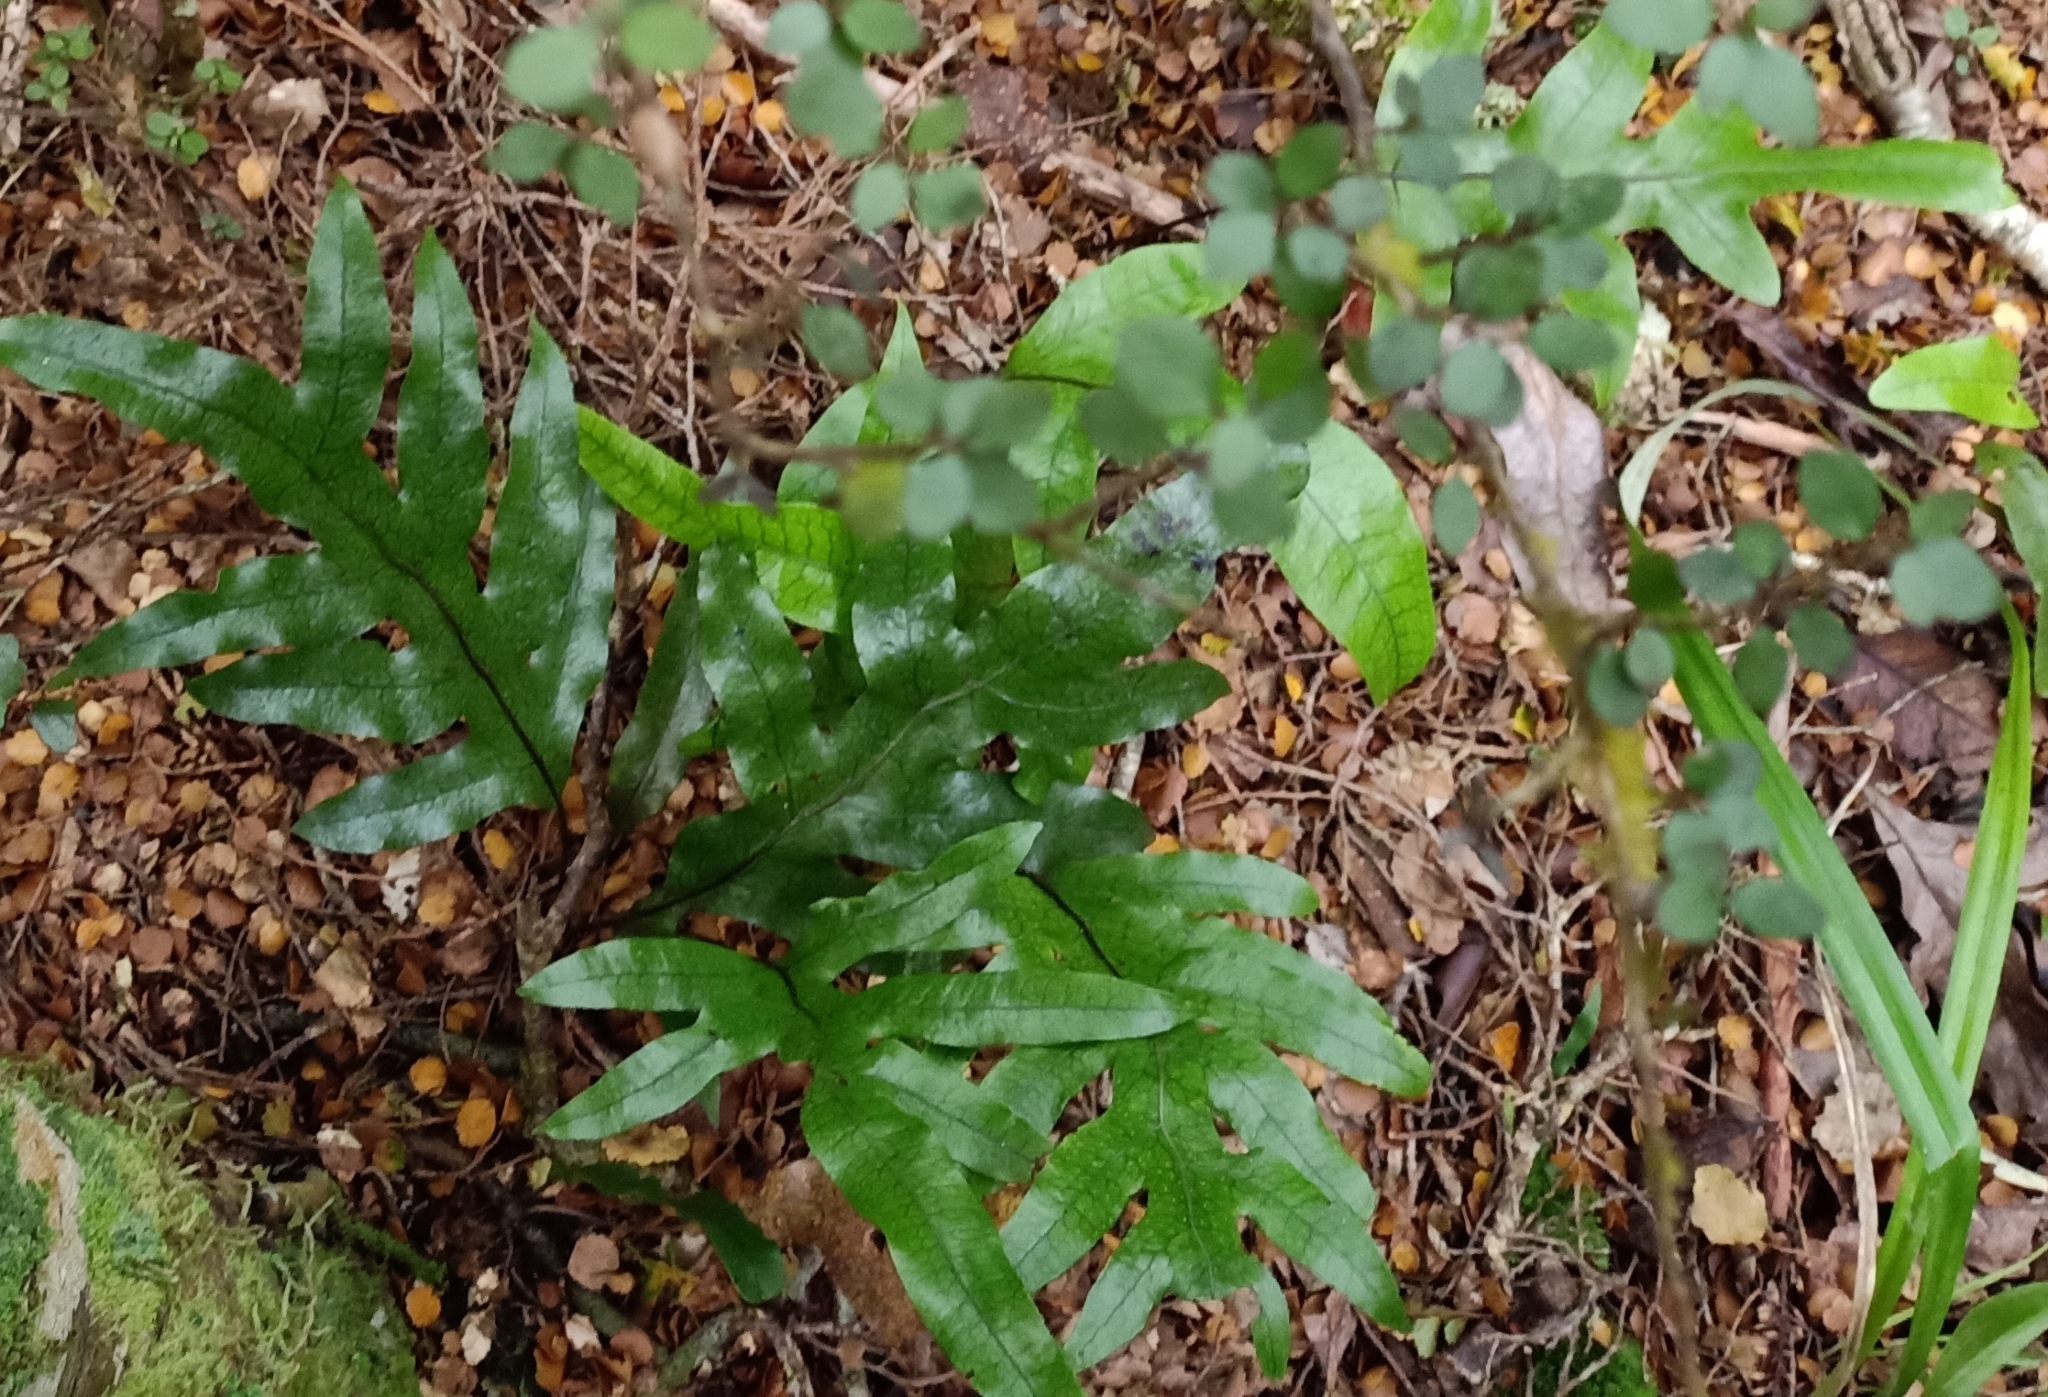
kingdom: Plantae
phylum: Tracheophyta
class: Polypodiopsida
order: Polypodiales
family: Polypodiaceae
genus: Lecanopteris
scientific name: Lecanopteris pustulata
